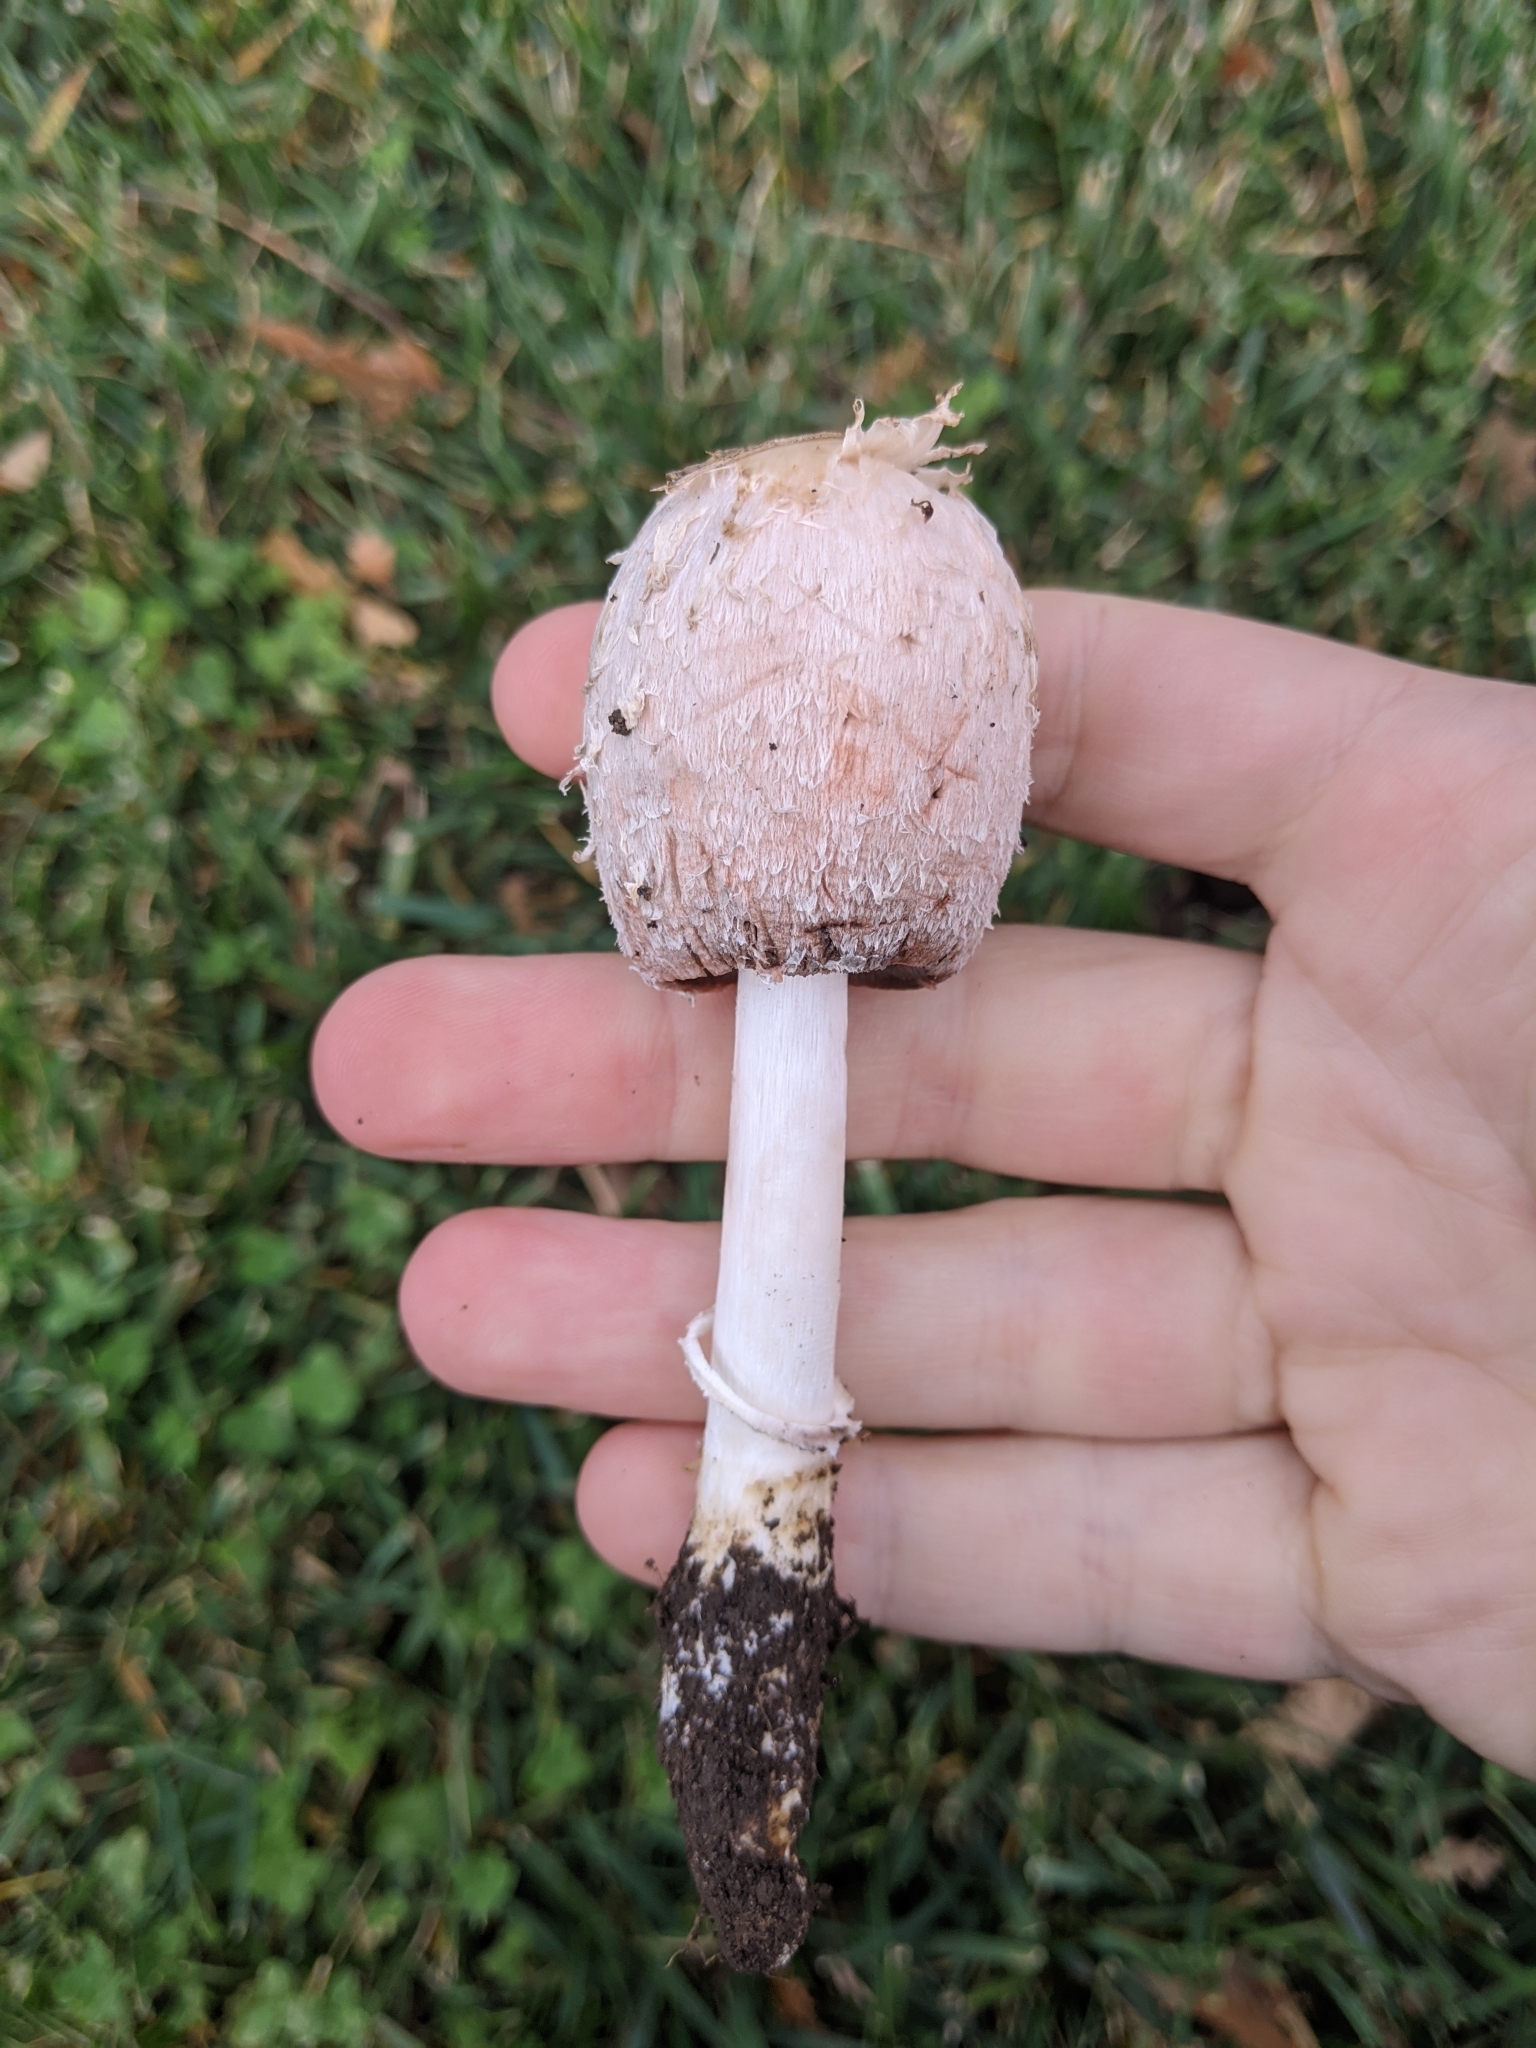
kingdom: Fungi
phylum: Basidiomycota
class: Agaricomycetes
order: Agaricales
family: Agaricaceae
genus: Coprinus
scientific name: Coprinus comatus
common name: Lawyer's wig
